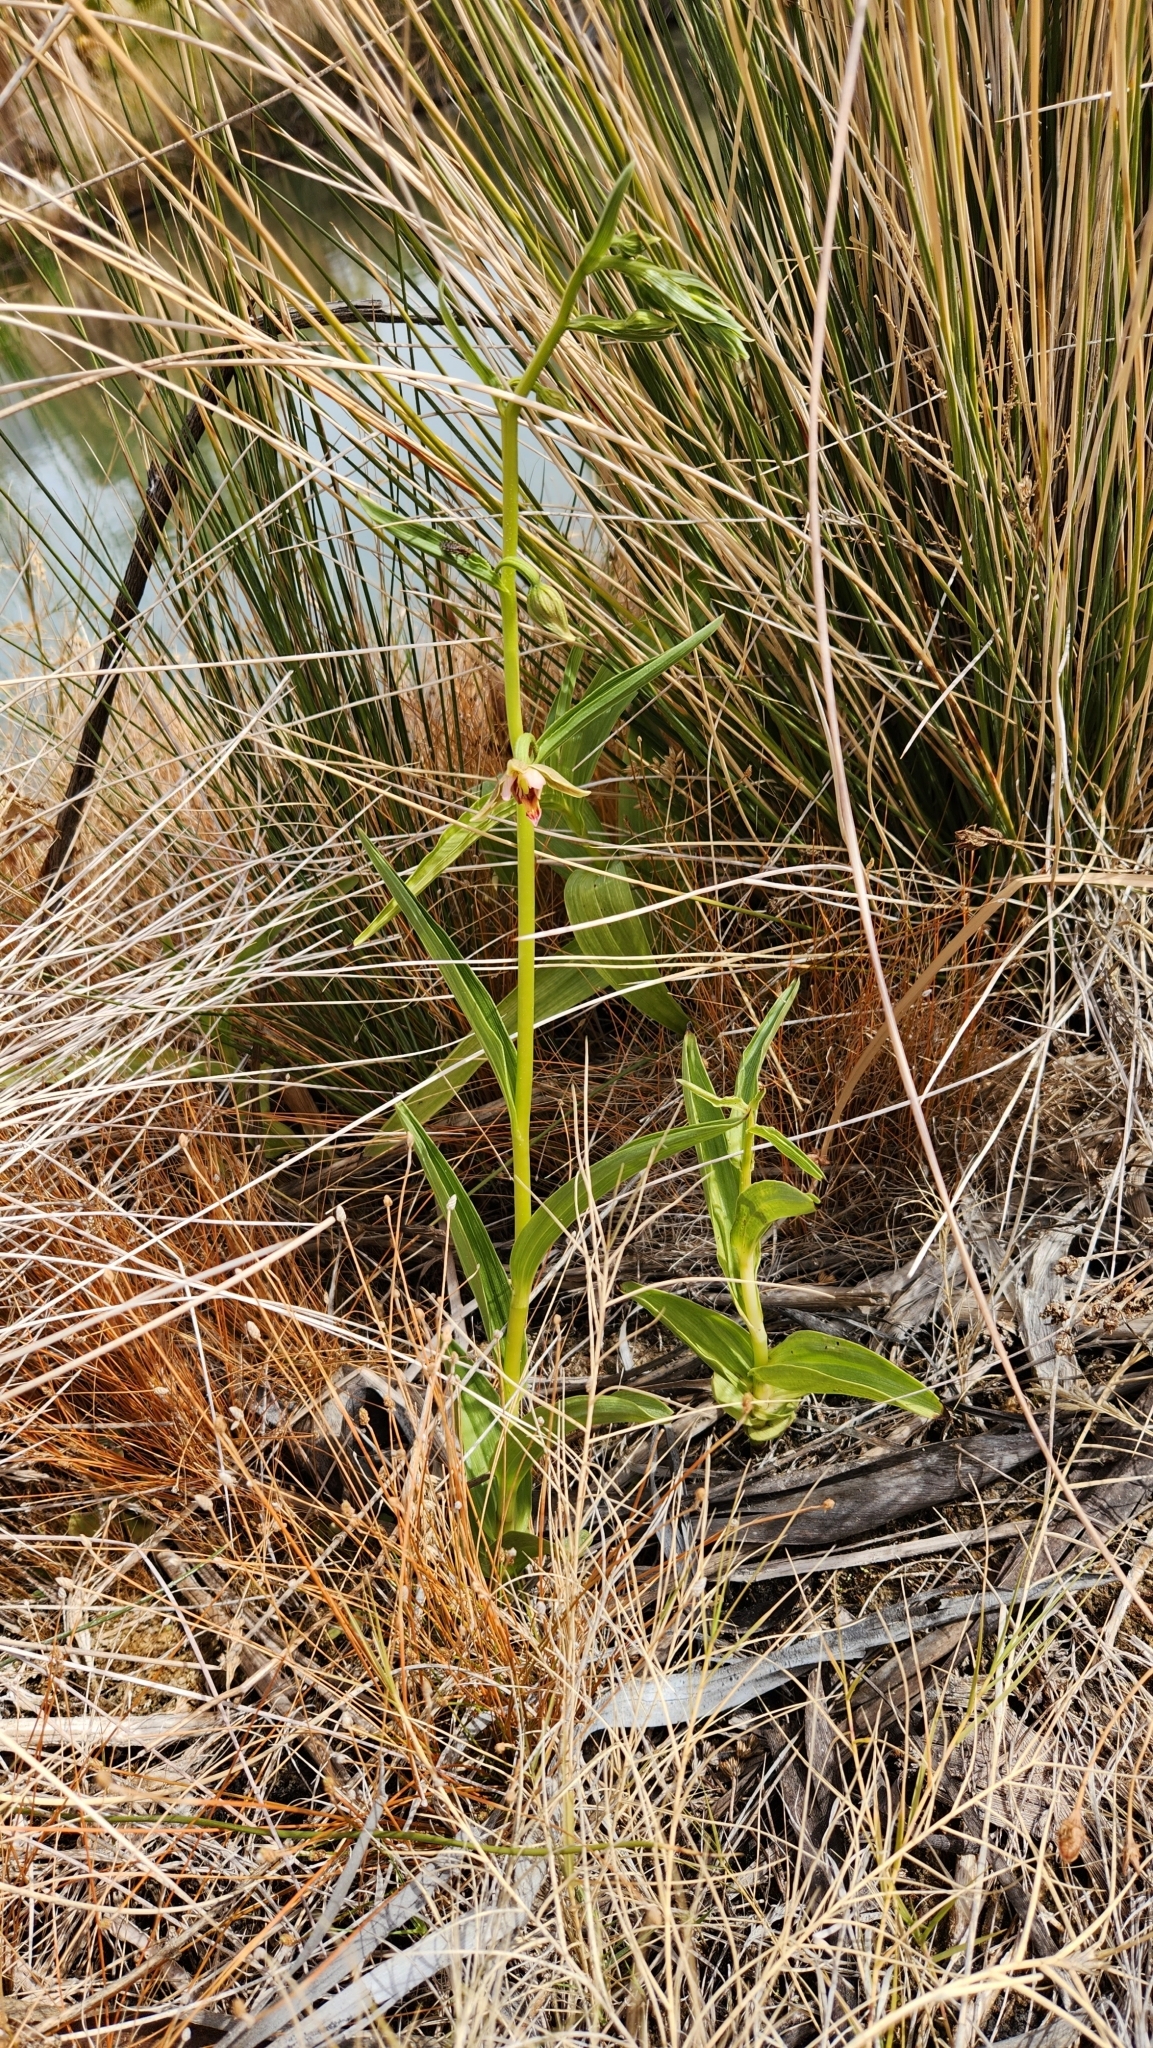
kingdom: Plantae
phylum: Tracheophyta
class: Liliopsida
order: Asparagales
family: Orchidaceae
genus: Epipactis
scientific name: Epipactis gigantea
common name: Chatterbox
